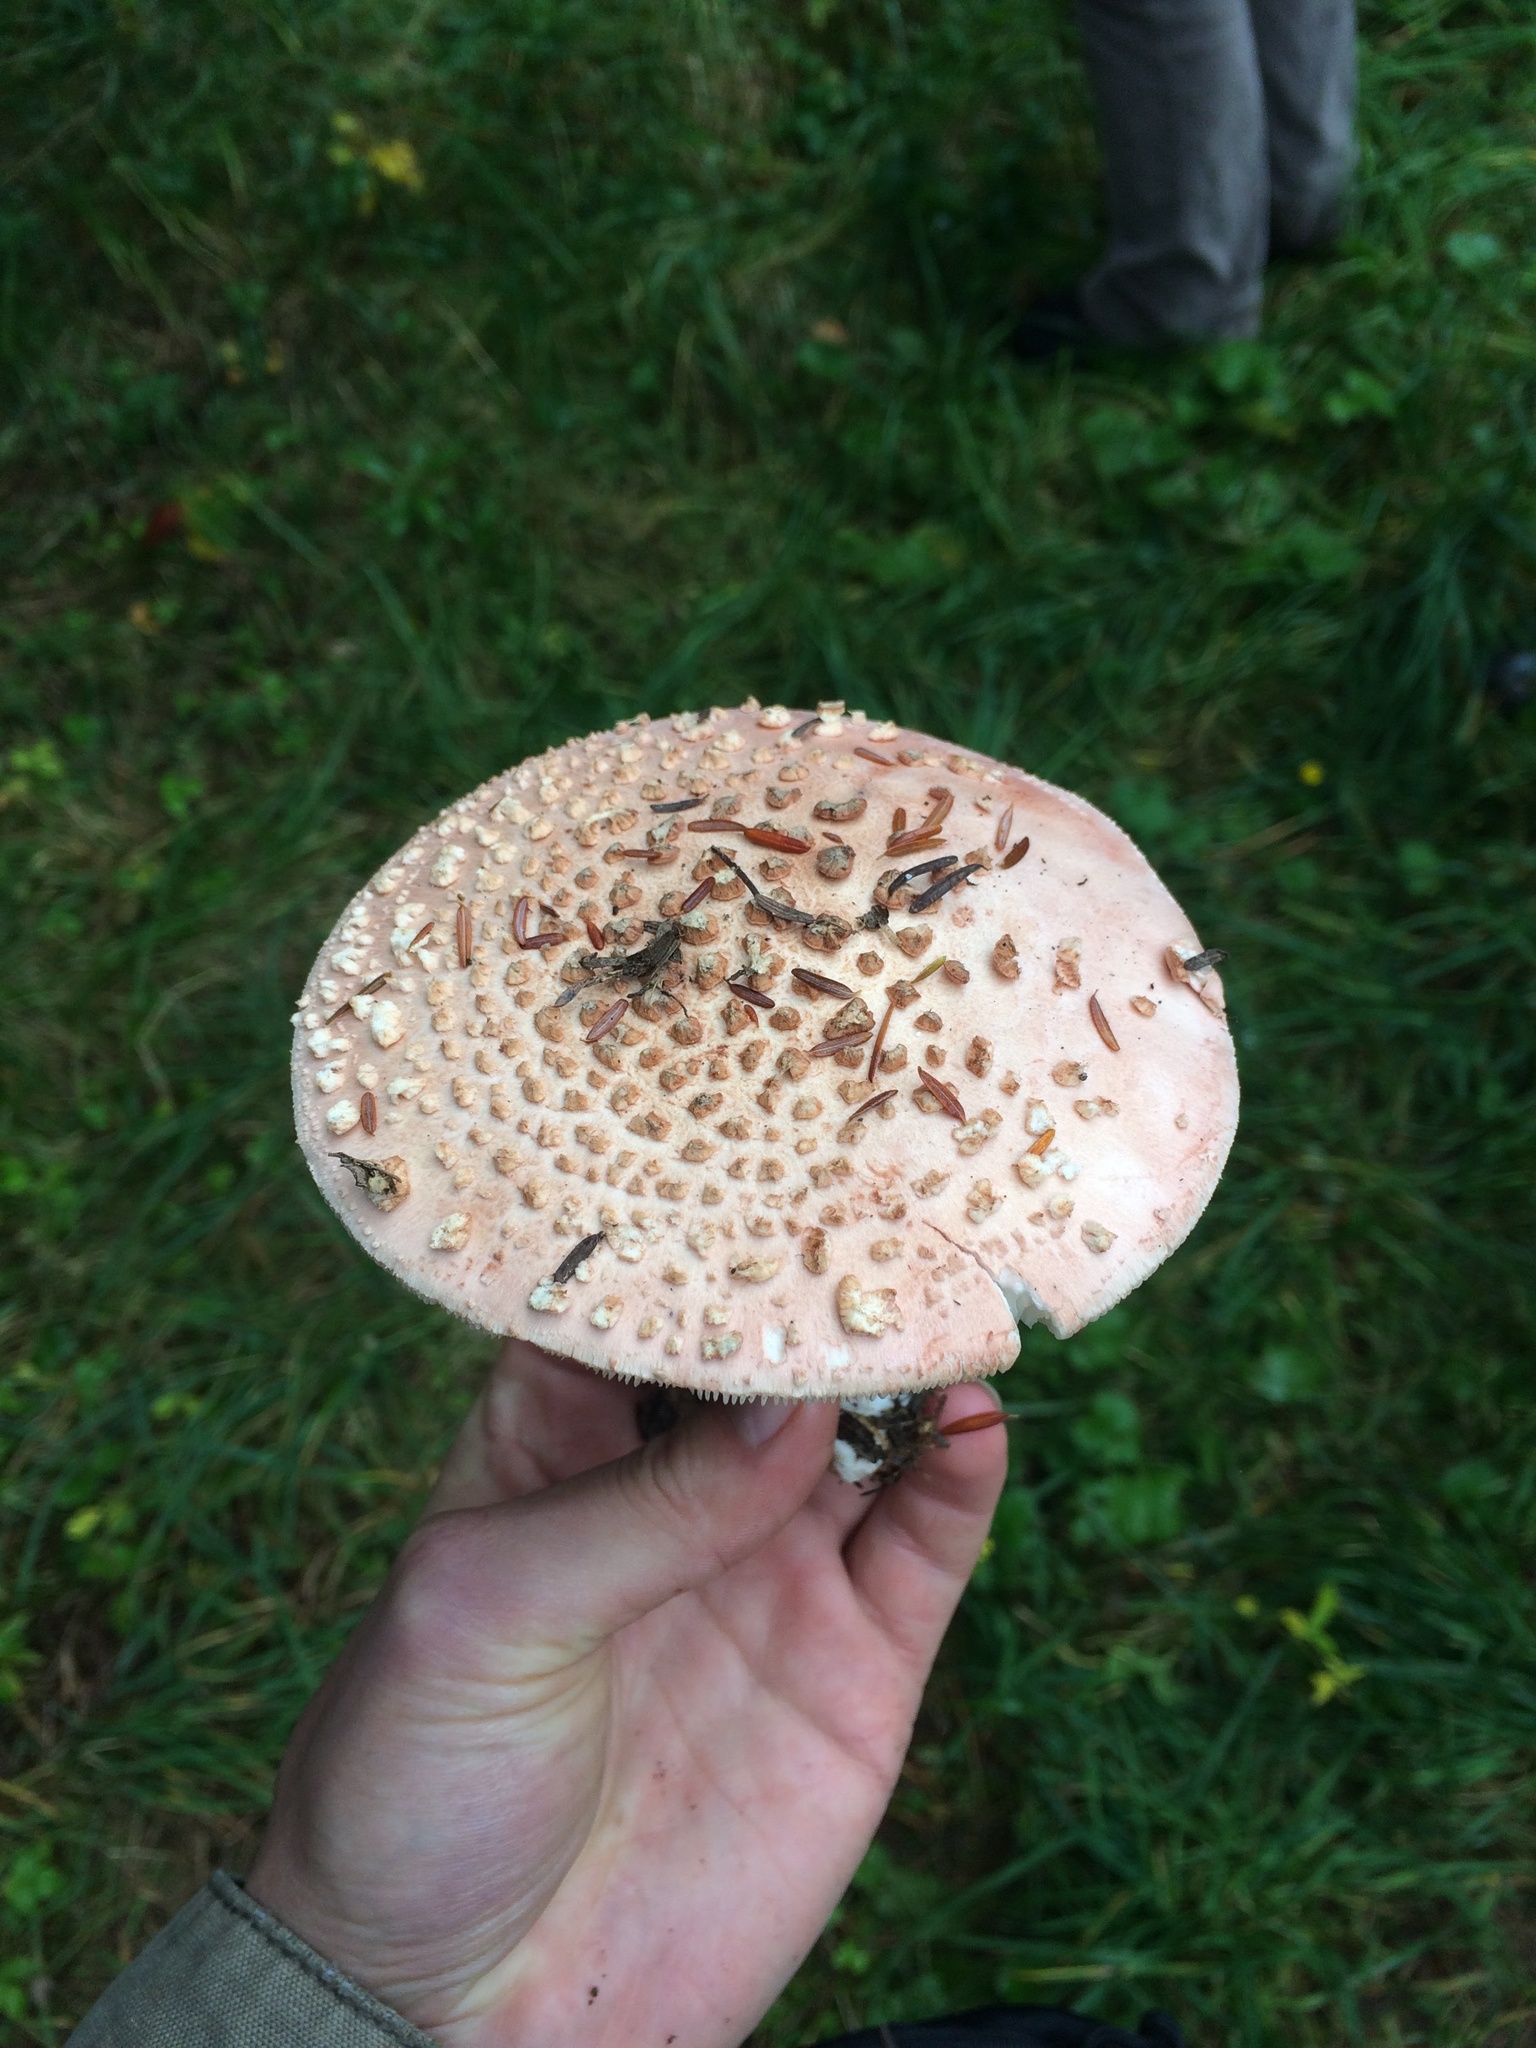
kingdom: Fungi
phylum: Basidiomycota
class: Agaricomycetes
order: Agaricales
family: Amanitaceae
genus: Amanita
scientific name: Amanita rubescens
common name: Blusher
